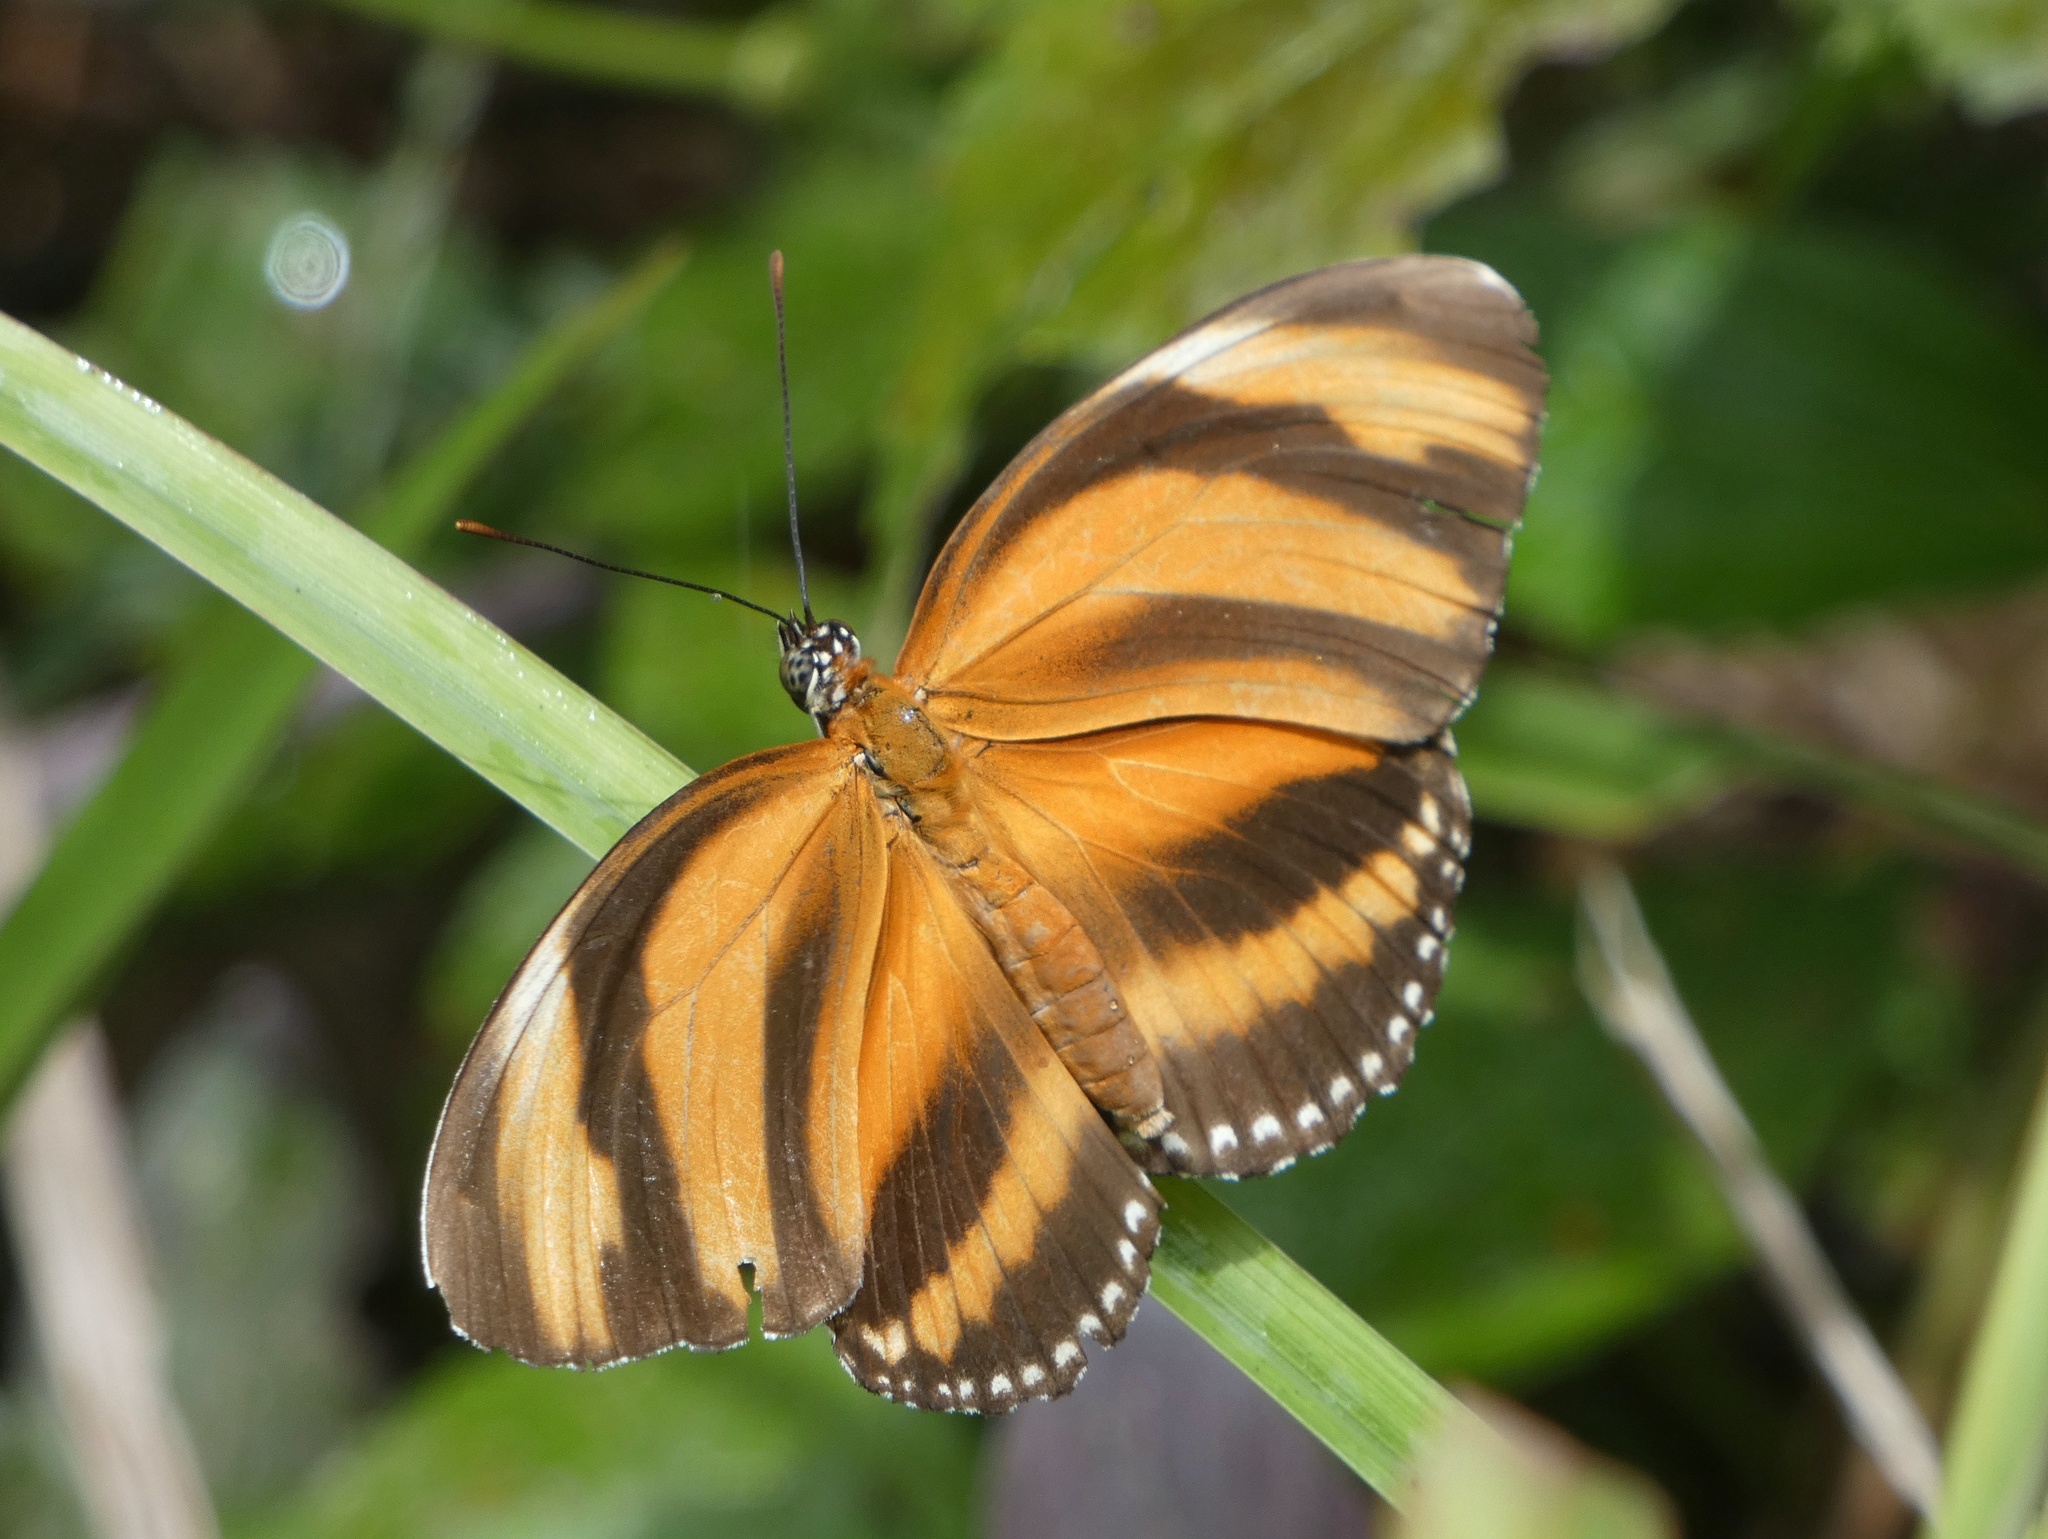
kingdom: Animalia
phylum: Arthropoda
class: Insecta
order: Lepidoptera
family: Nymphalidae
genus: Dryadula
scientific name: Dryadula phaetusa
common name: Banded orange heliconian
